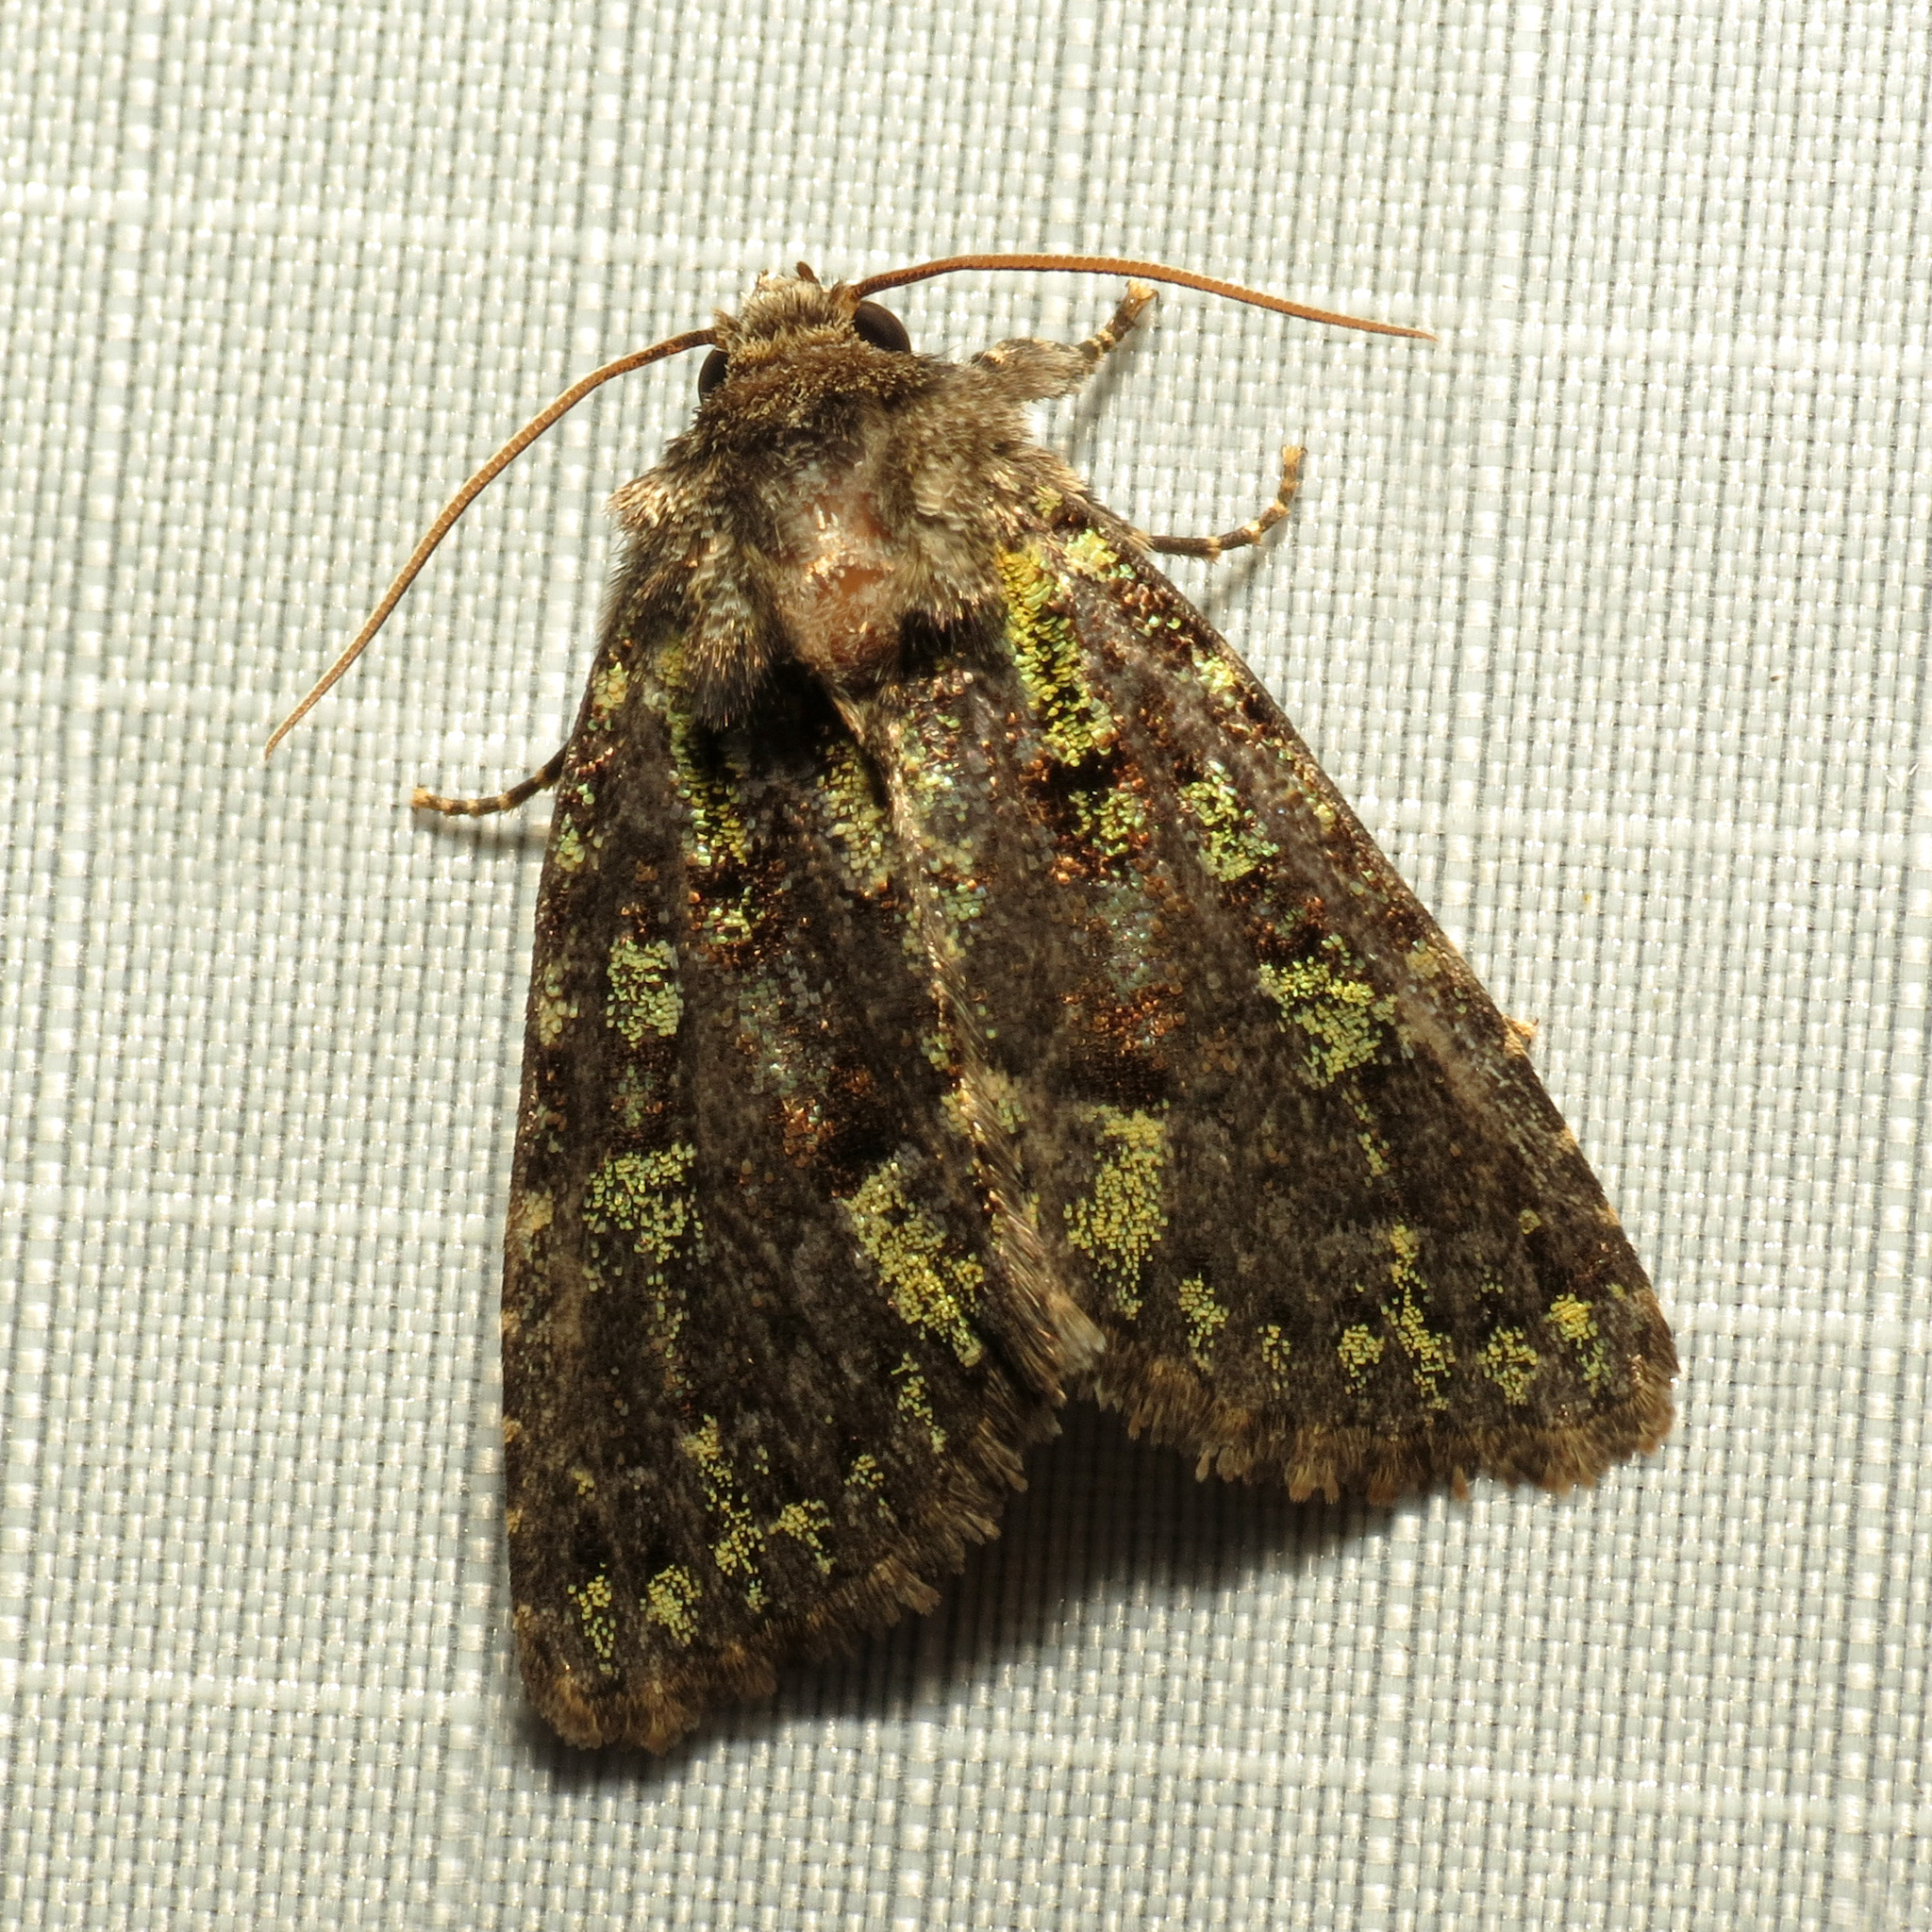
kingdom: Animalia
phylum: Arthropoda
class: Insecta
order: Lepidoptera
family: Noctuidae
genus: Paramiana
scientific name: Paramiana smaragdina
